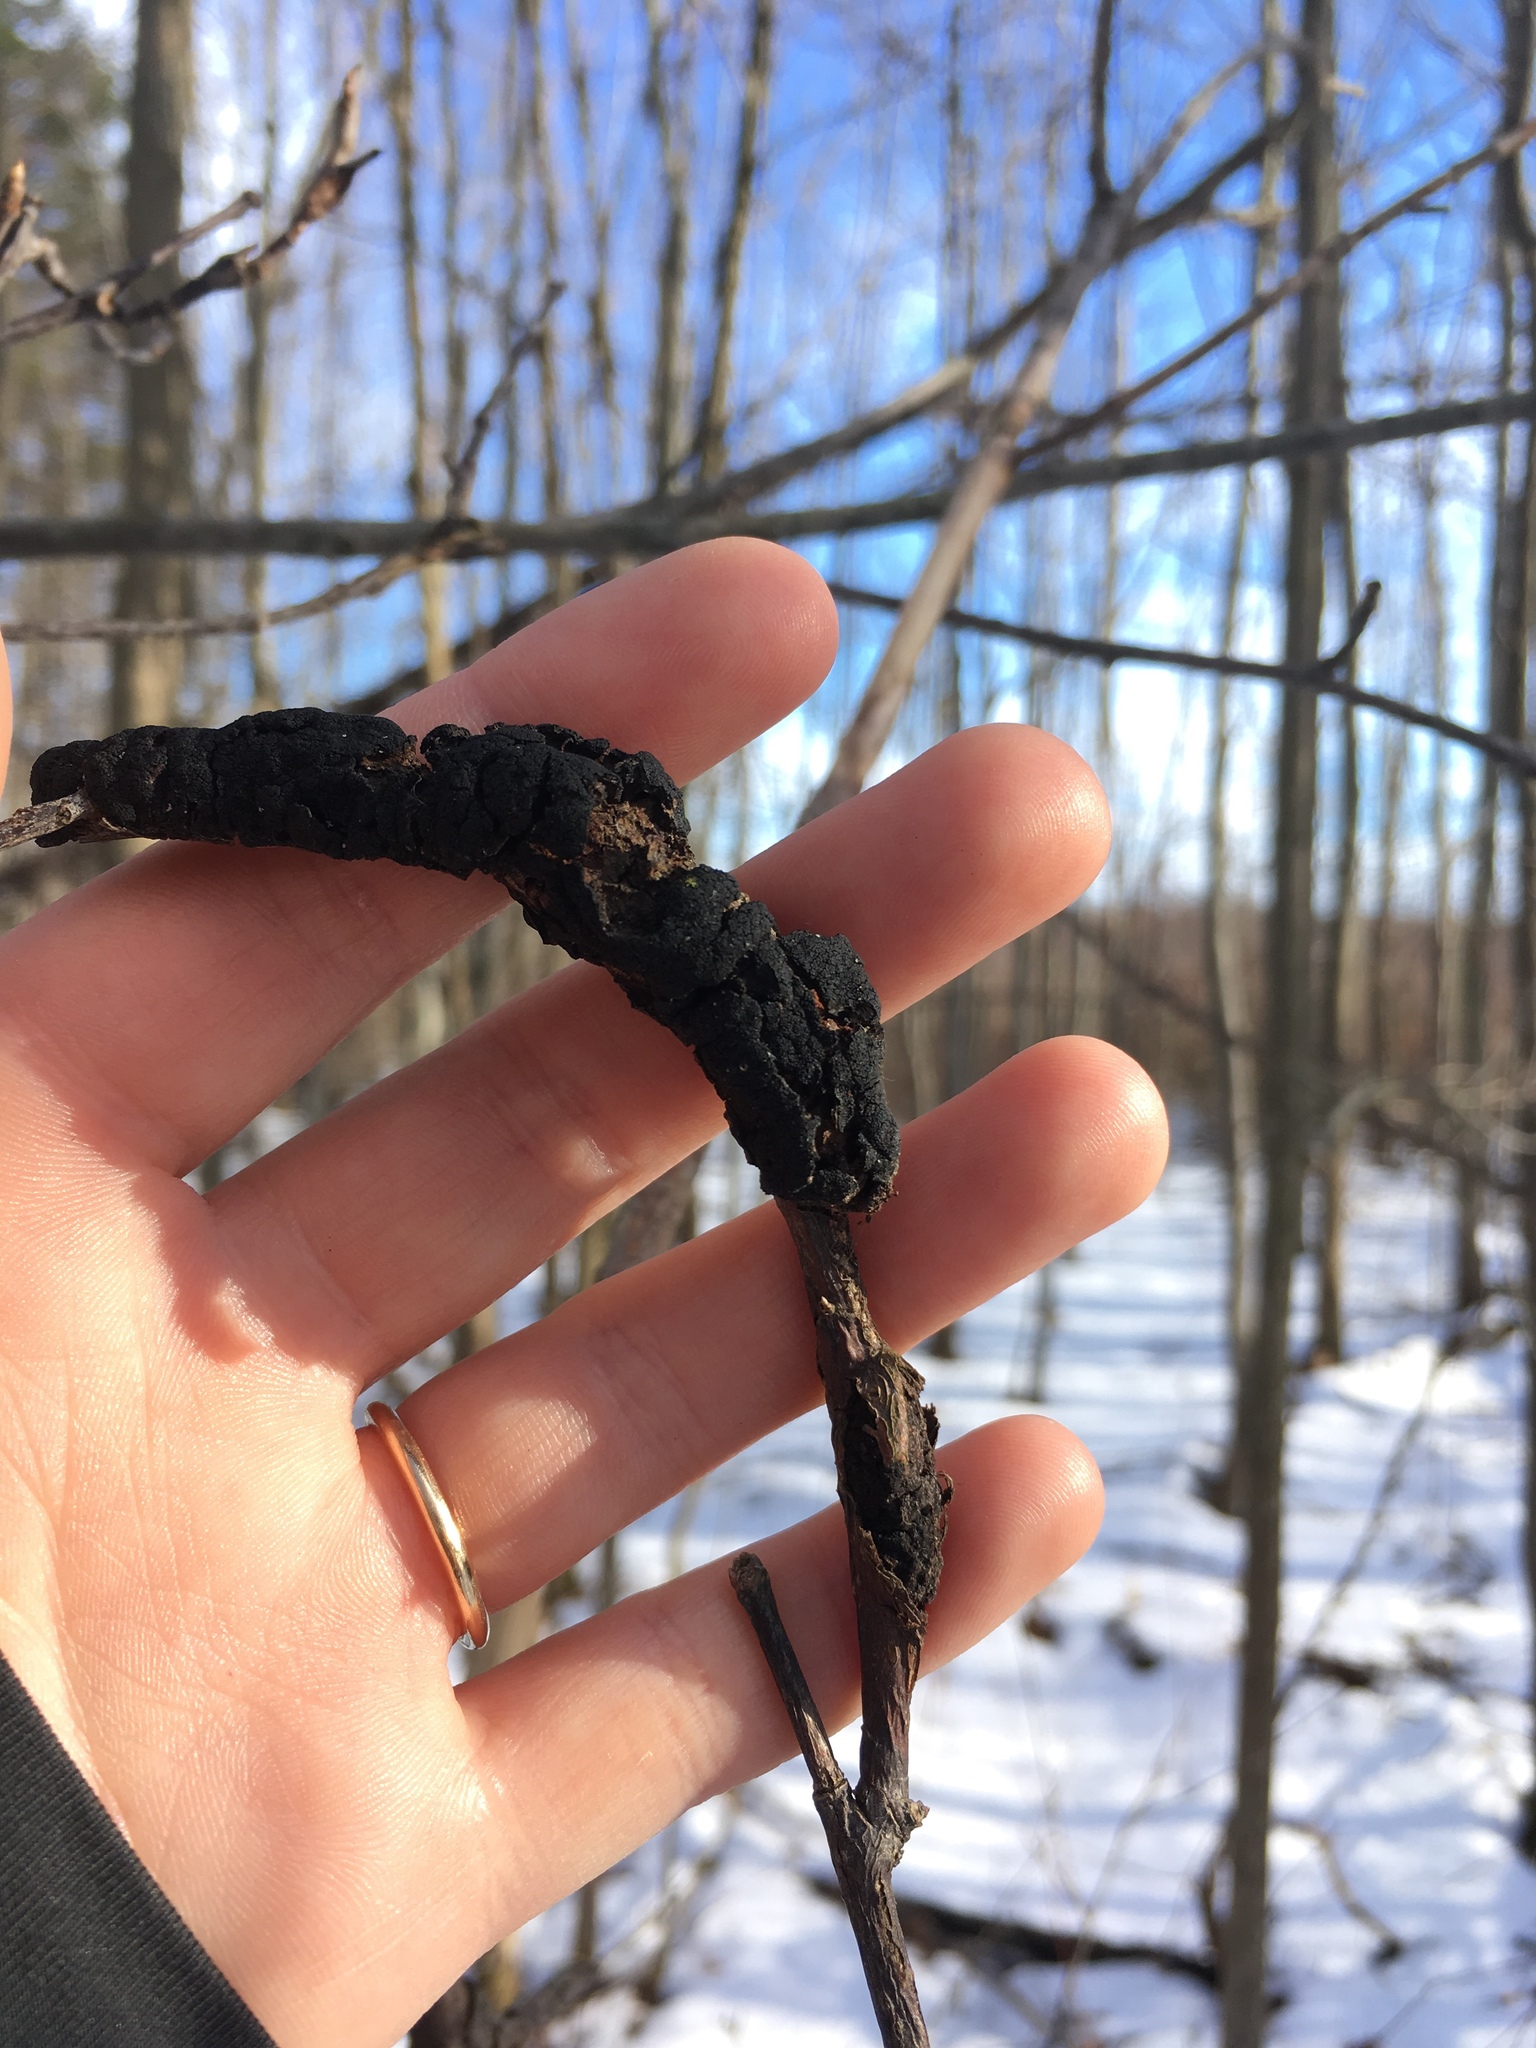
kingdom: Fungi
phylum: Ascomycota
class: Dothideomycetes
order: Venturiales
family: Venturiaceae
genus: Apiosporina
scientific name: Apiosporina morbosa
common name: Black knot
